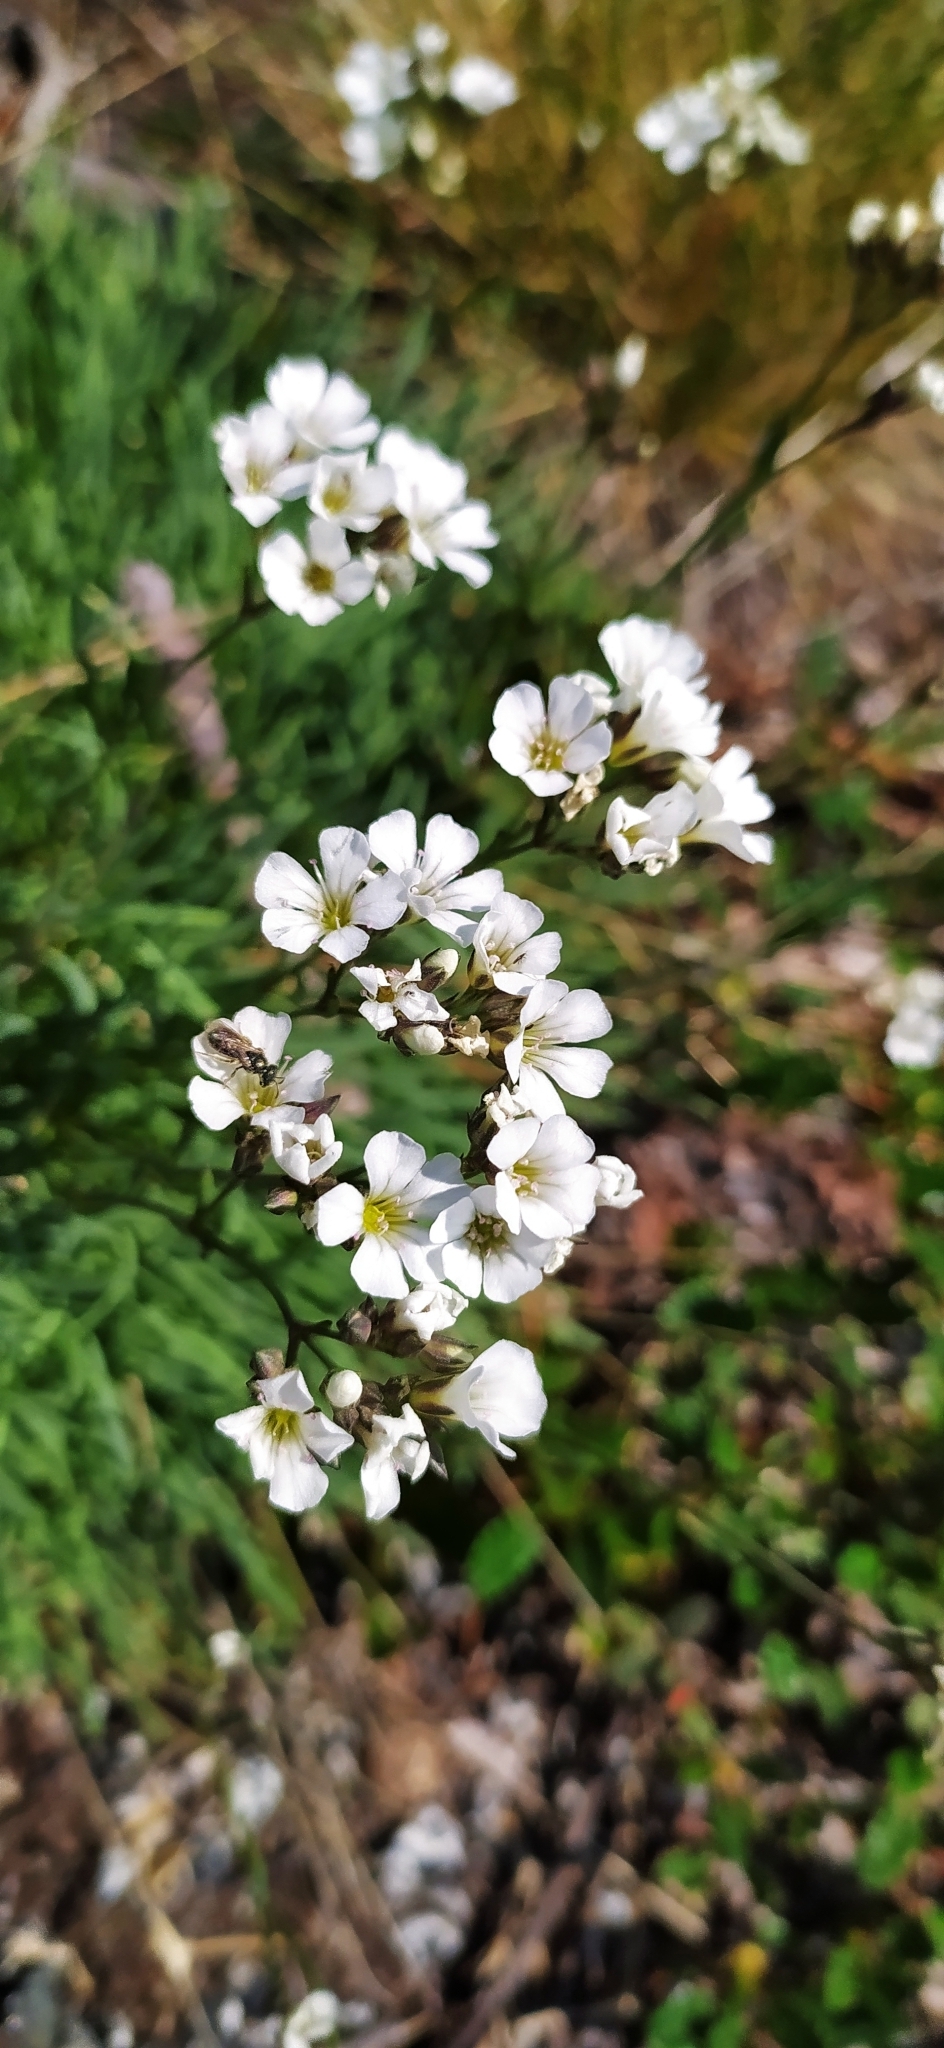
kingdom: Plantae
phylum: Tracheophyta
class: Magnoliopsida
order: Caryophyllales
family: Caryophyllaceae
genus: Gypsophila
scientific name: Gypsophila uralensis
